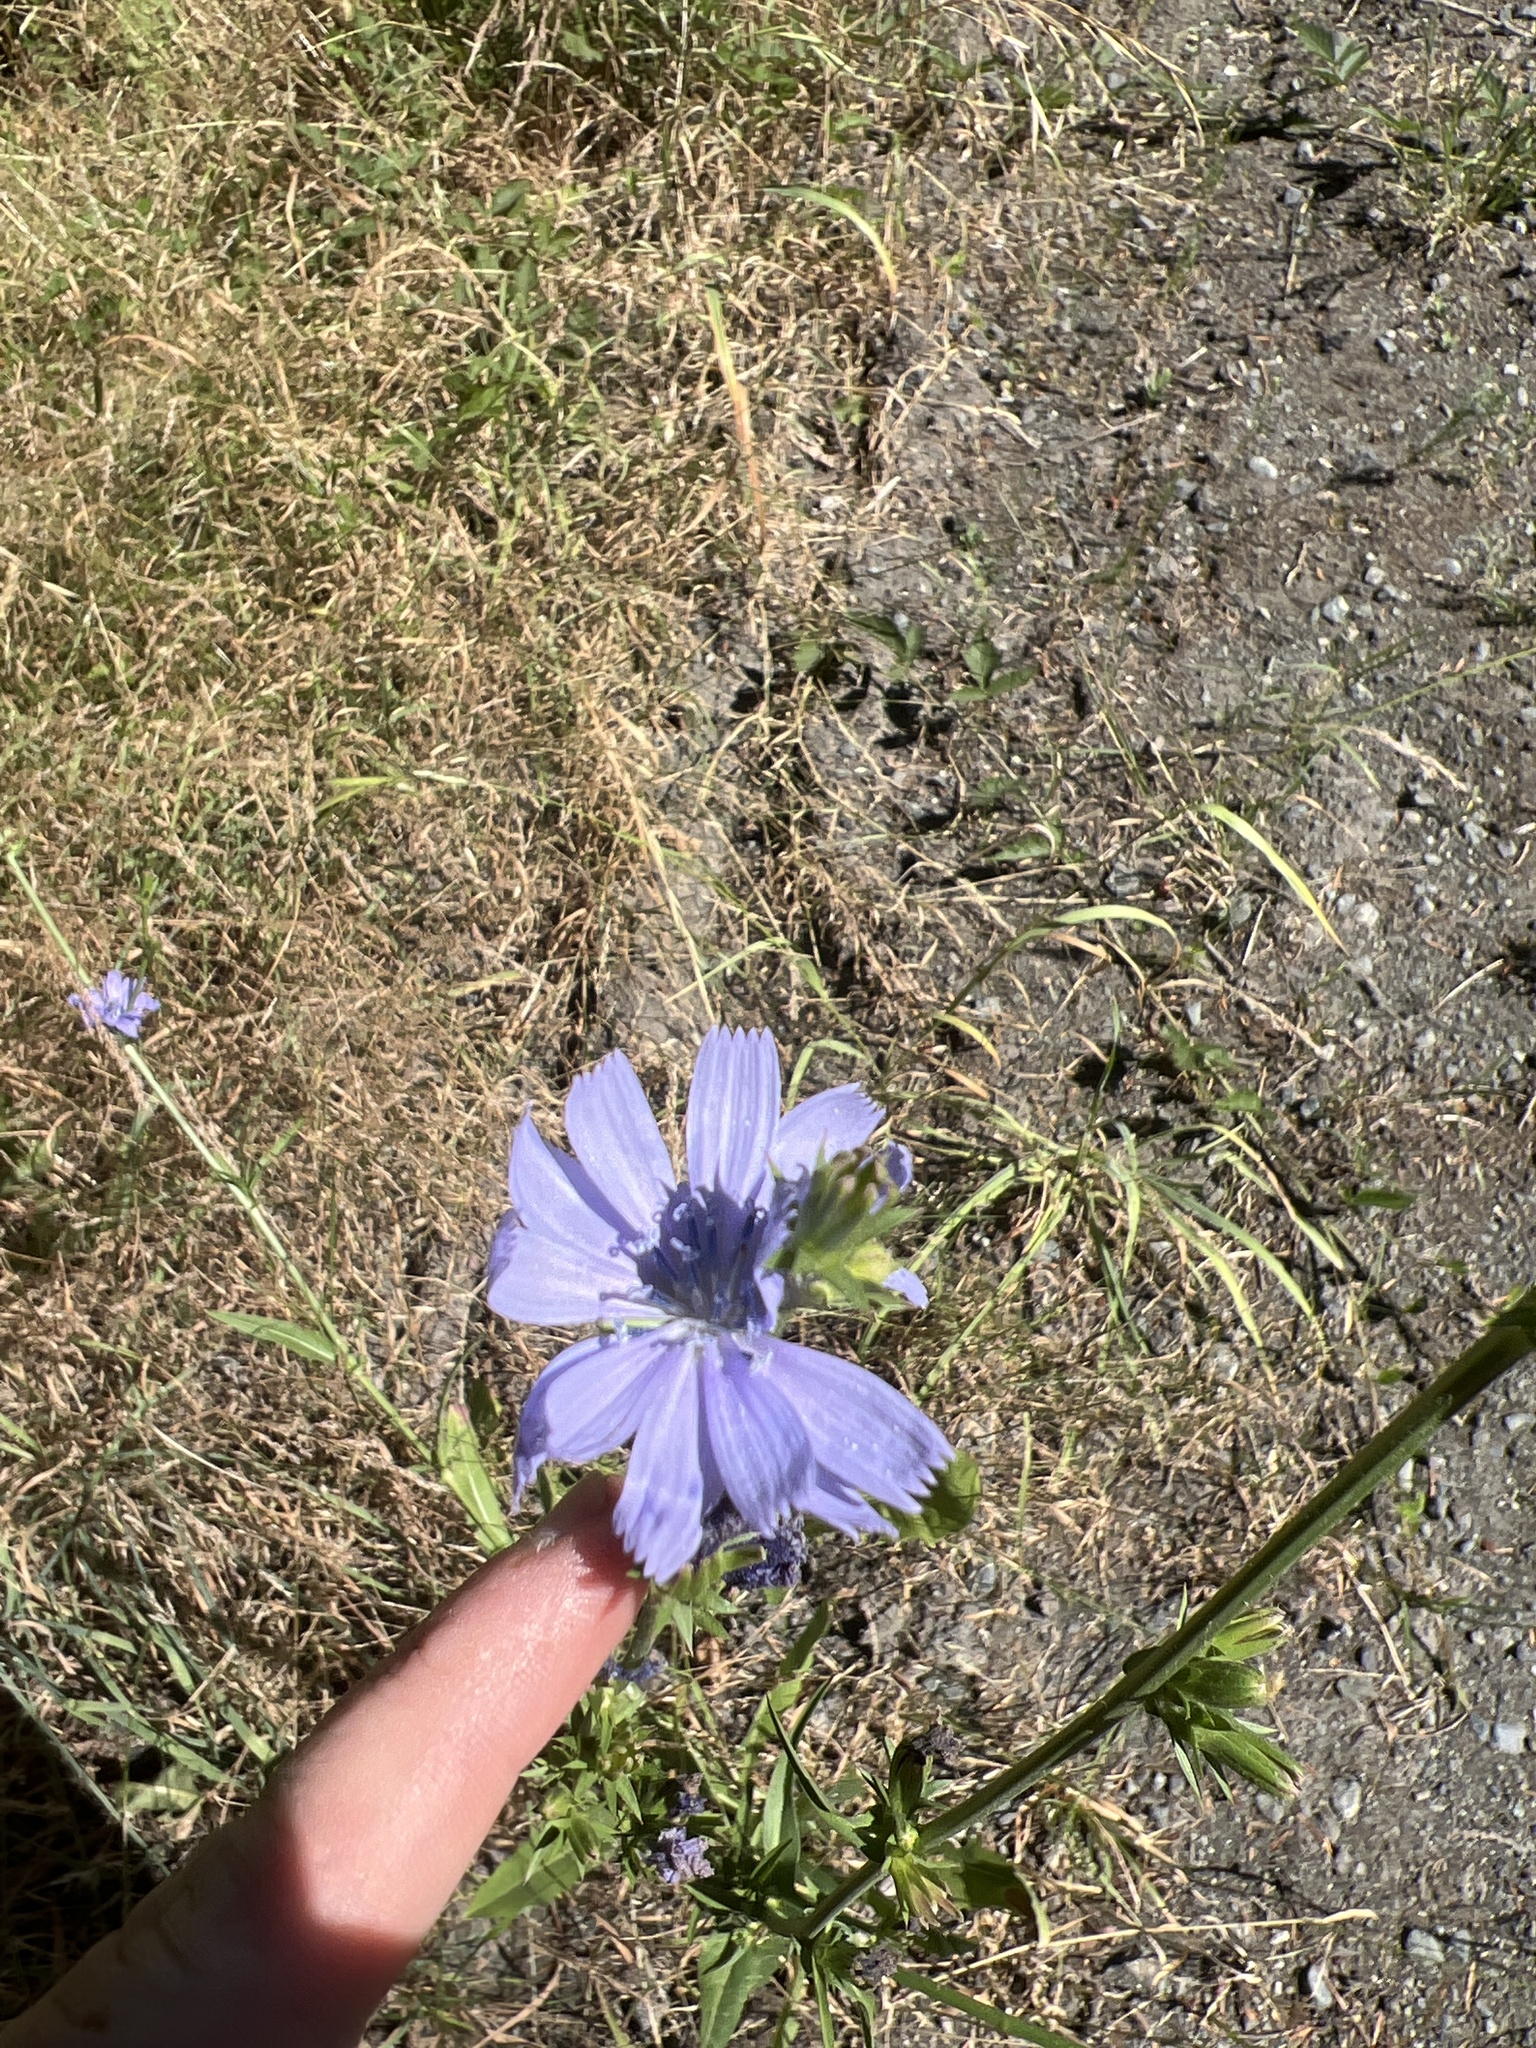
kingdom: Plantae
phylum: Tracheophyta
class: Magnoliopsida
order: Asterales
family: Asteraceae
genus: Cichorium
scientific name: Cichorium intybus
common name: Chicory
